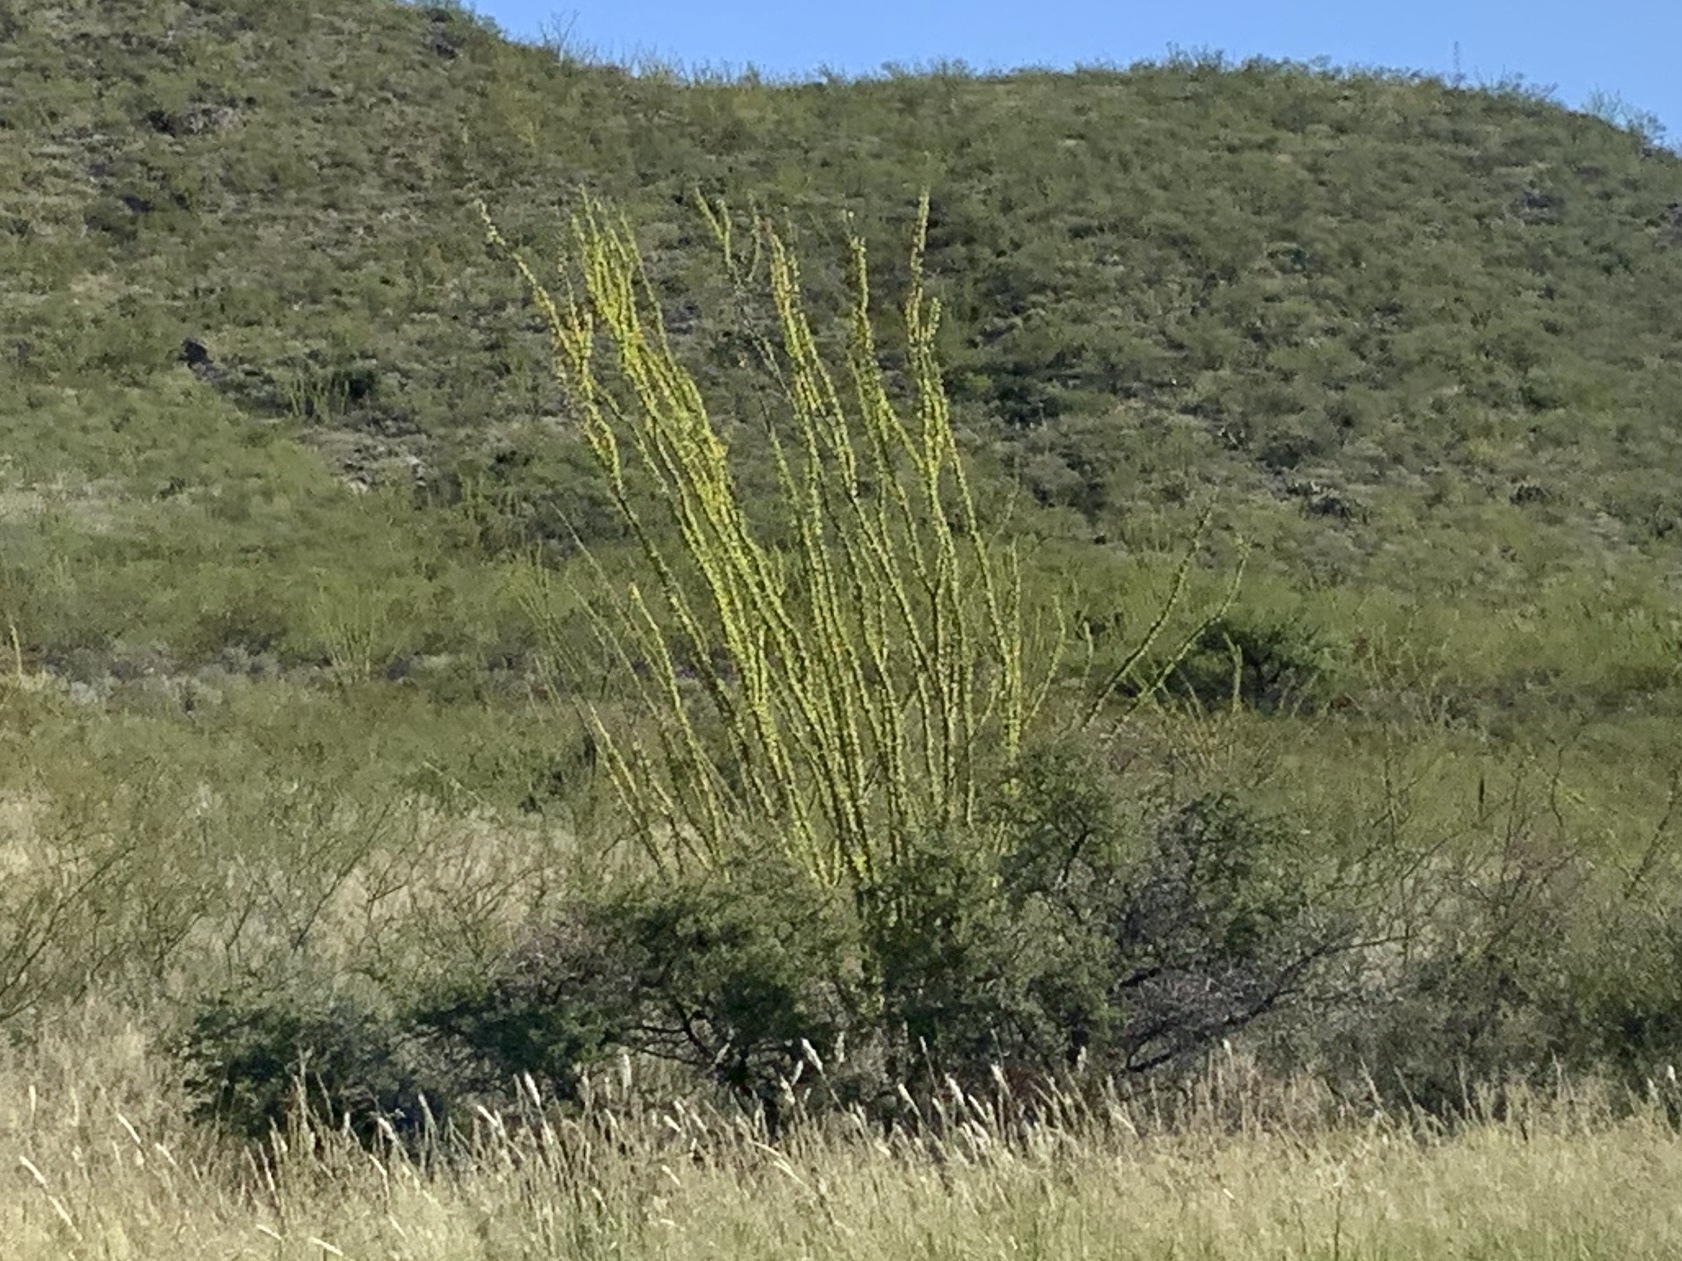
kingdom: Plantae
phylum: Tracheophyta
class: Magnoliopsida
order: Ericales
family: Fouquieriaceae
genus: Fouquieria
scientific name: Fouquieria splendens
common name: Vine-cactus
